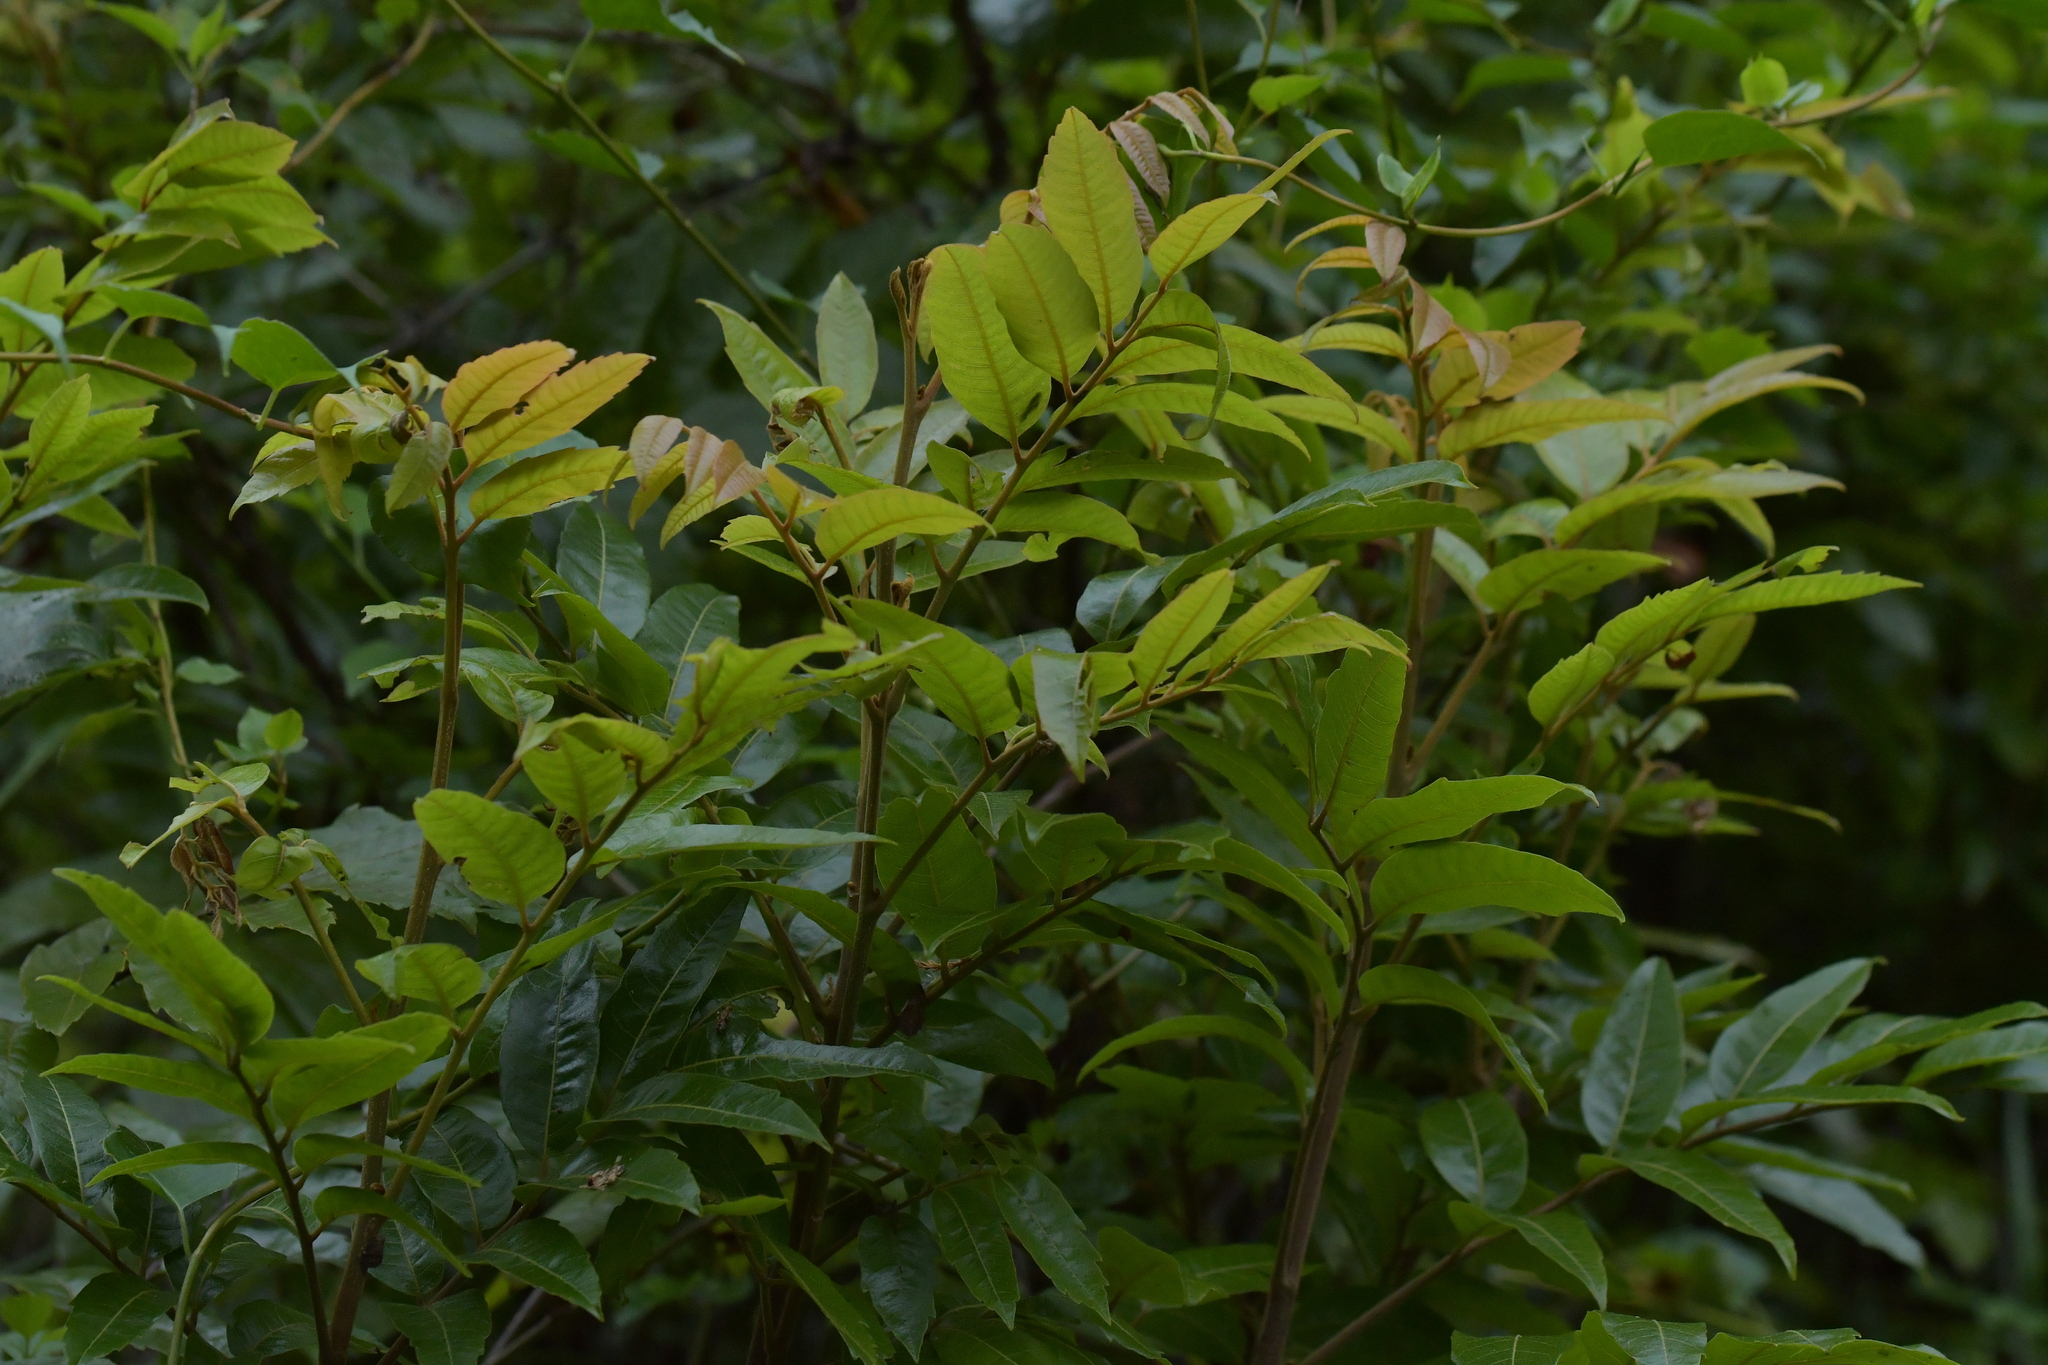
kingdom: Plantae
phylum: Tracheophyta
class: Magnoliopsida
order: Sapindales
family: Sapindaceae
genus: Alectryon
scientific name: Alectryon excelsus
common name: Three kings titoki
